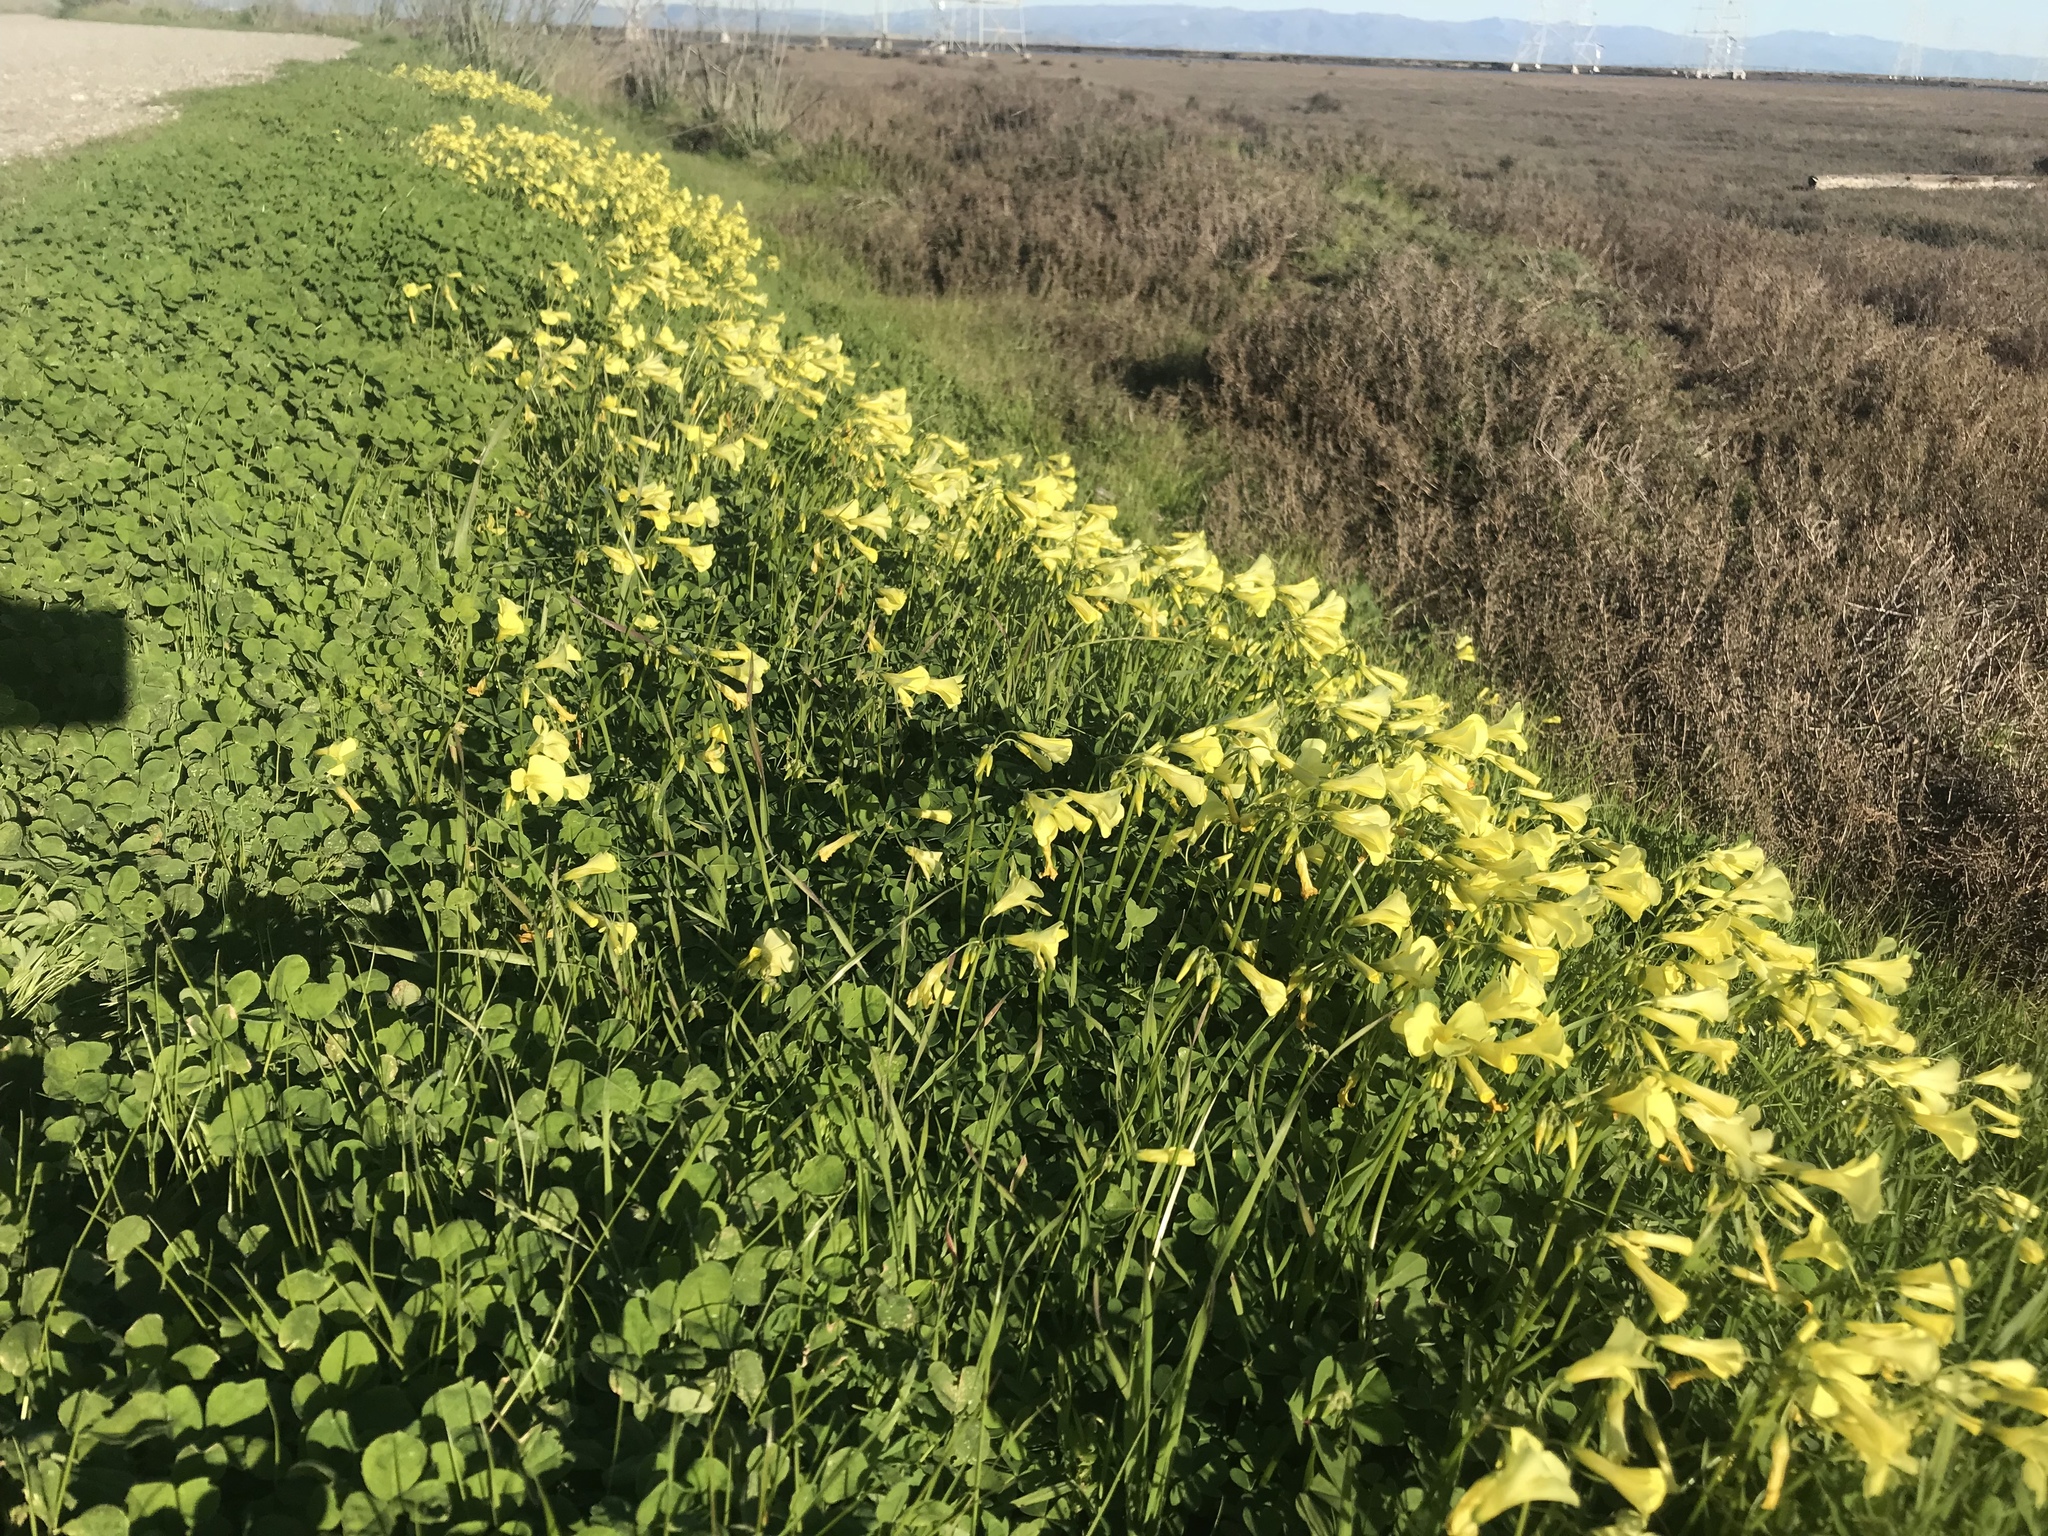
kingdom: Plantae
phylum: Tracheophyta
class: Magnoliopsida
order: Oxalidales
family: Oxalidaceae
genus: Oxalis
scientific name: Oxalis pes-caprae
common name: Bermuda-buttercup
